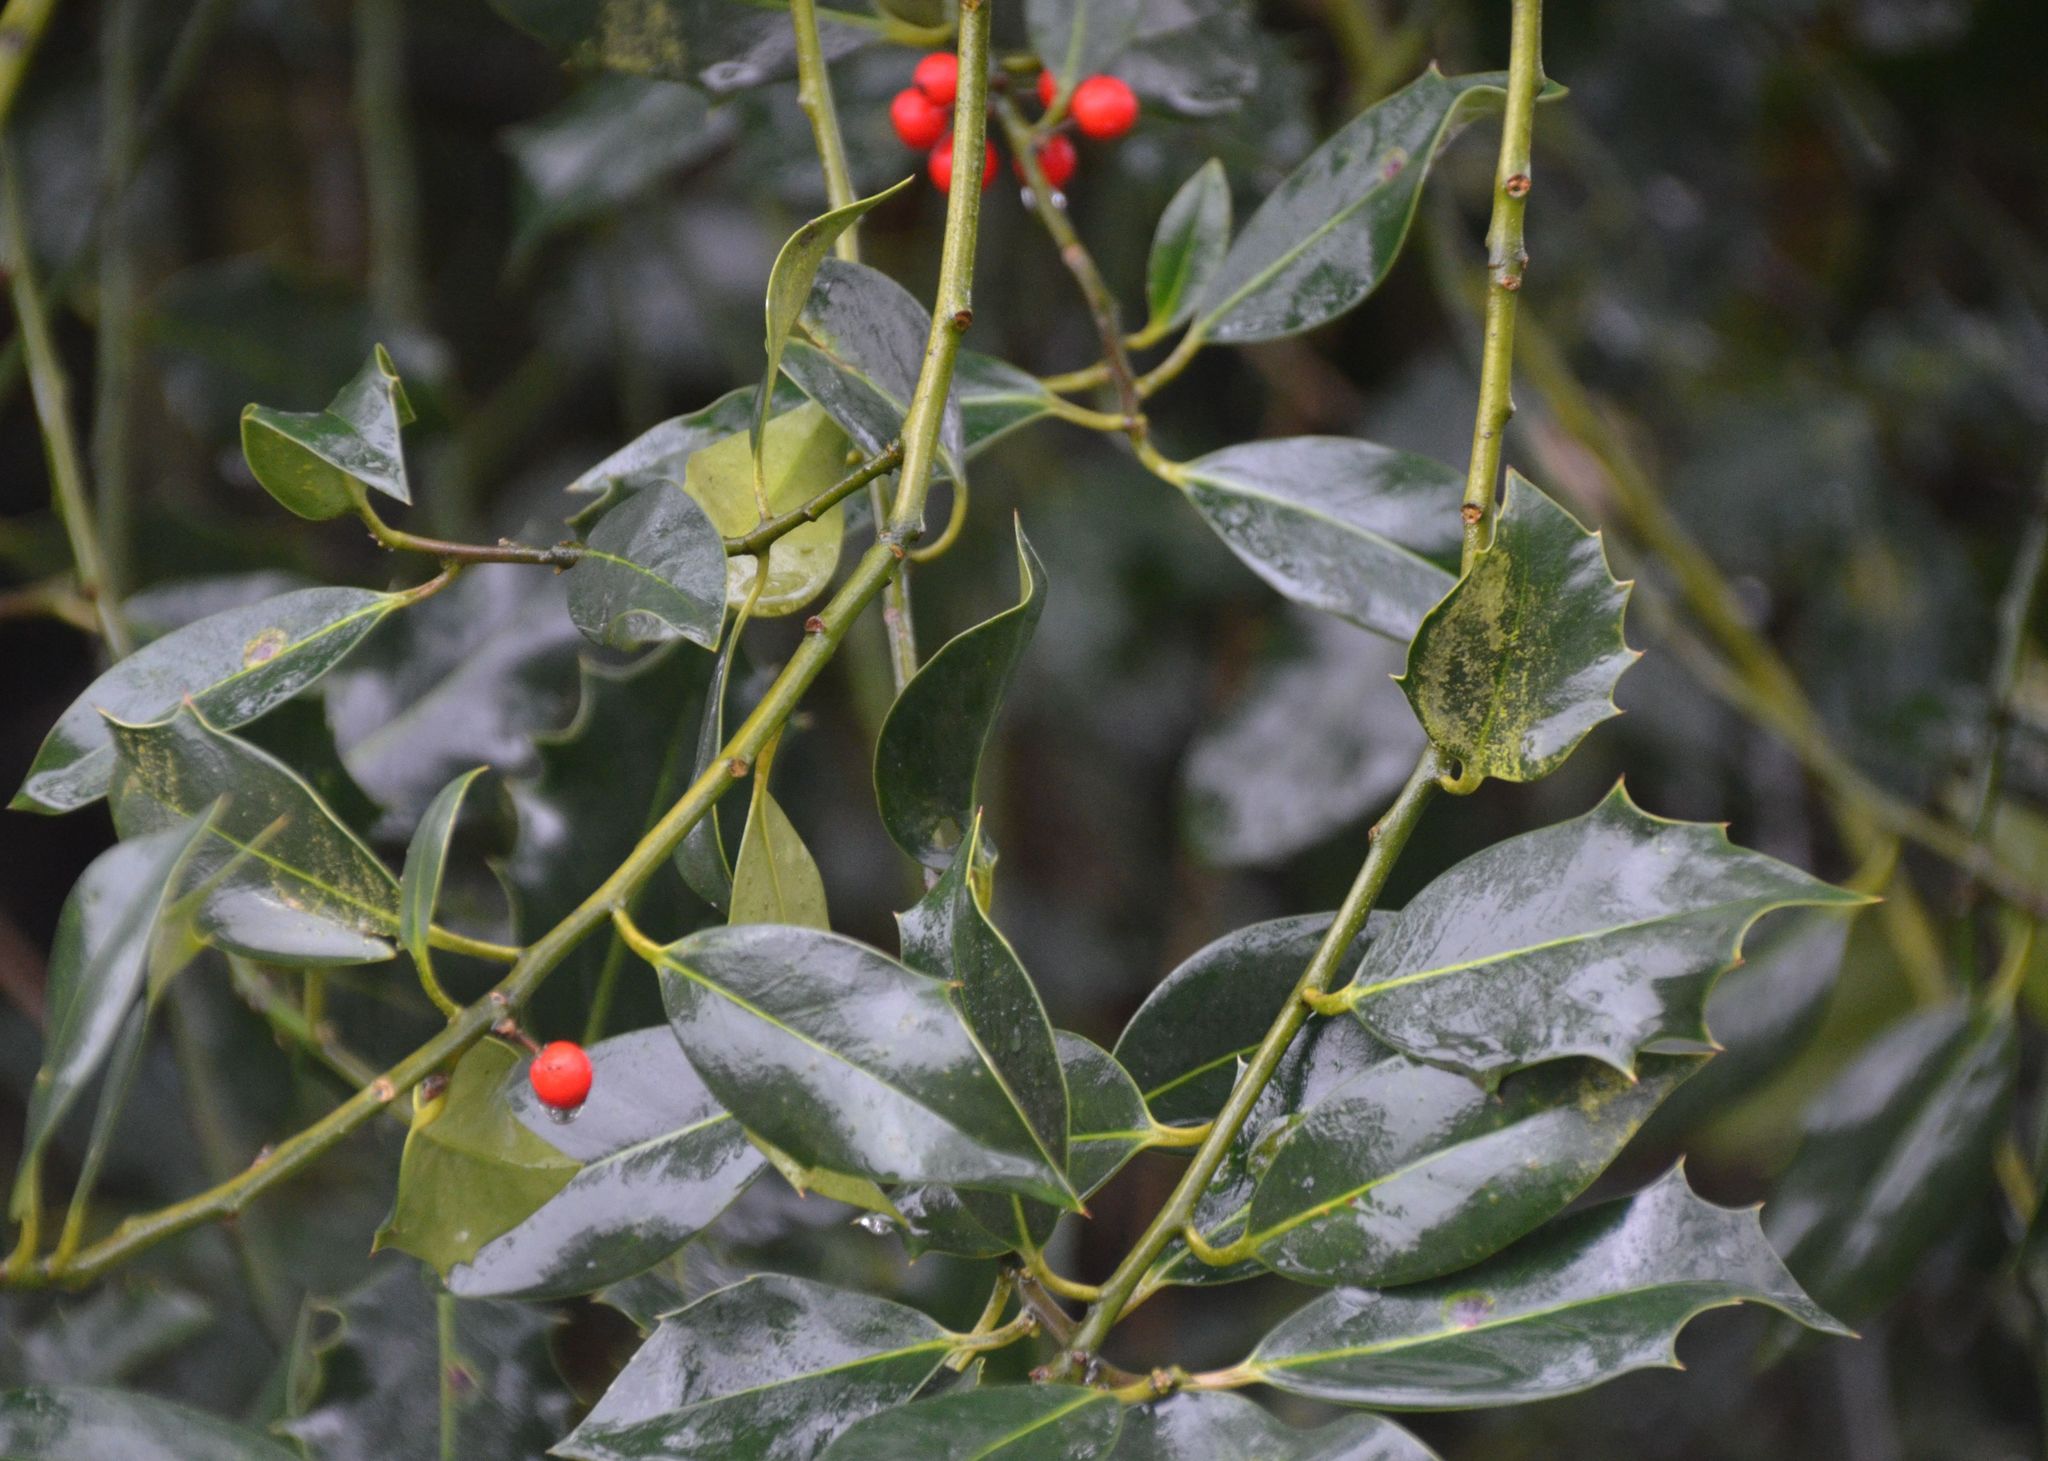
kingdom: Plantae
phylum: Tracheophyta
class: Magnoliopsida
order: Aquifoliales
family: Aquifoliaceae
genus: Ilex
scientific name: Ilex aquifolium
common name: English holly
